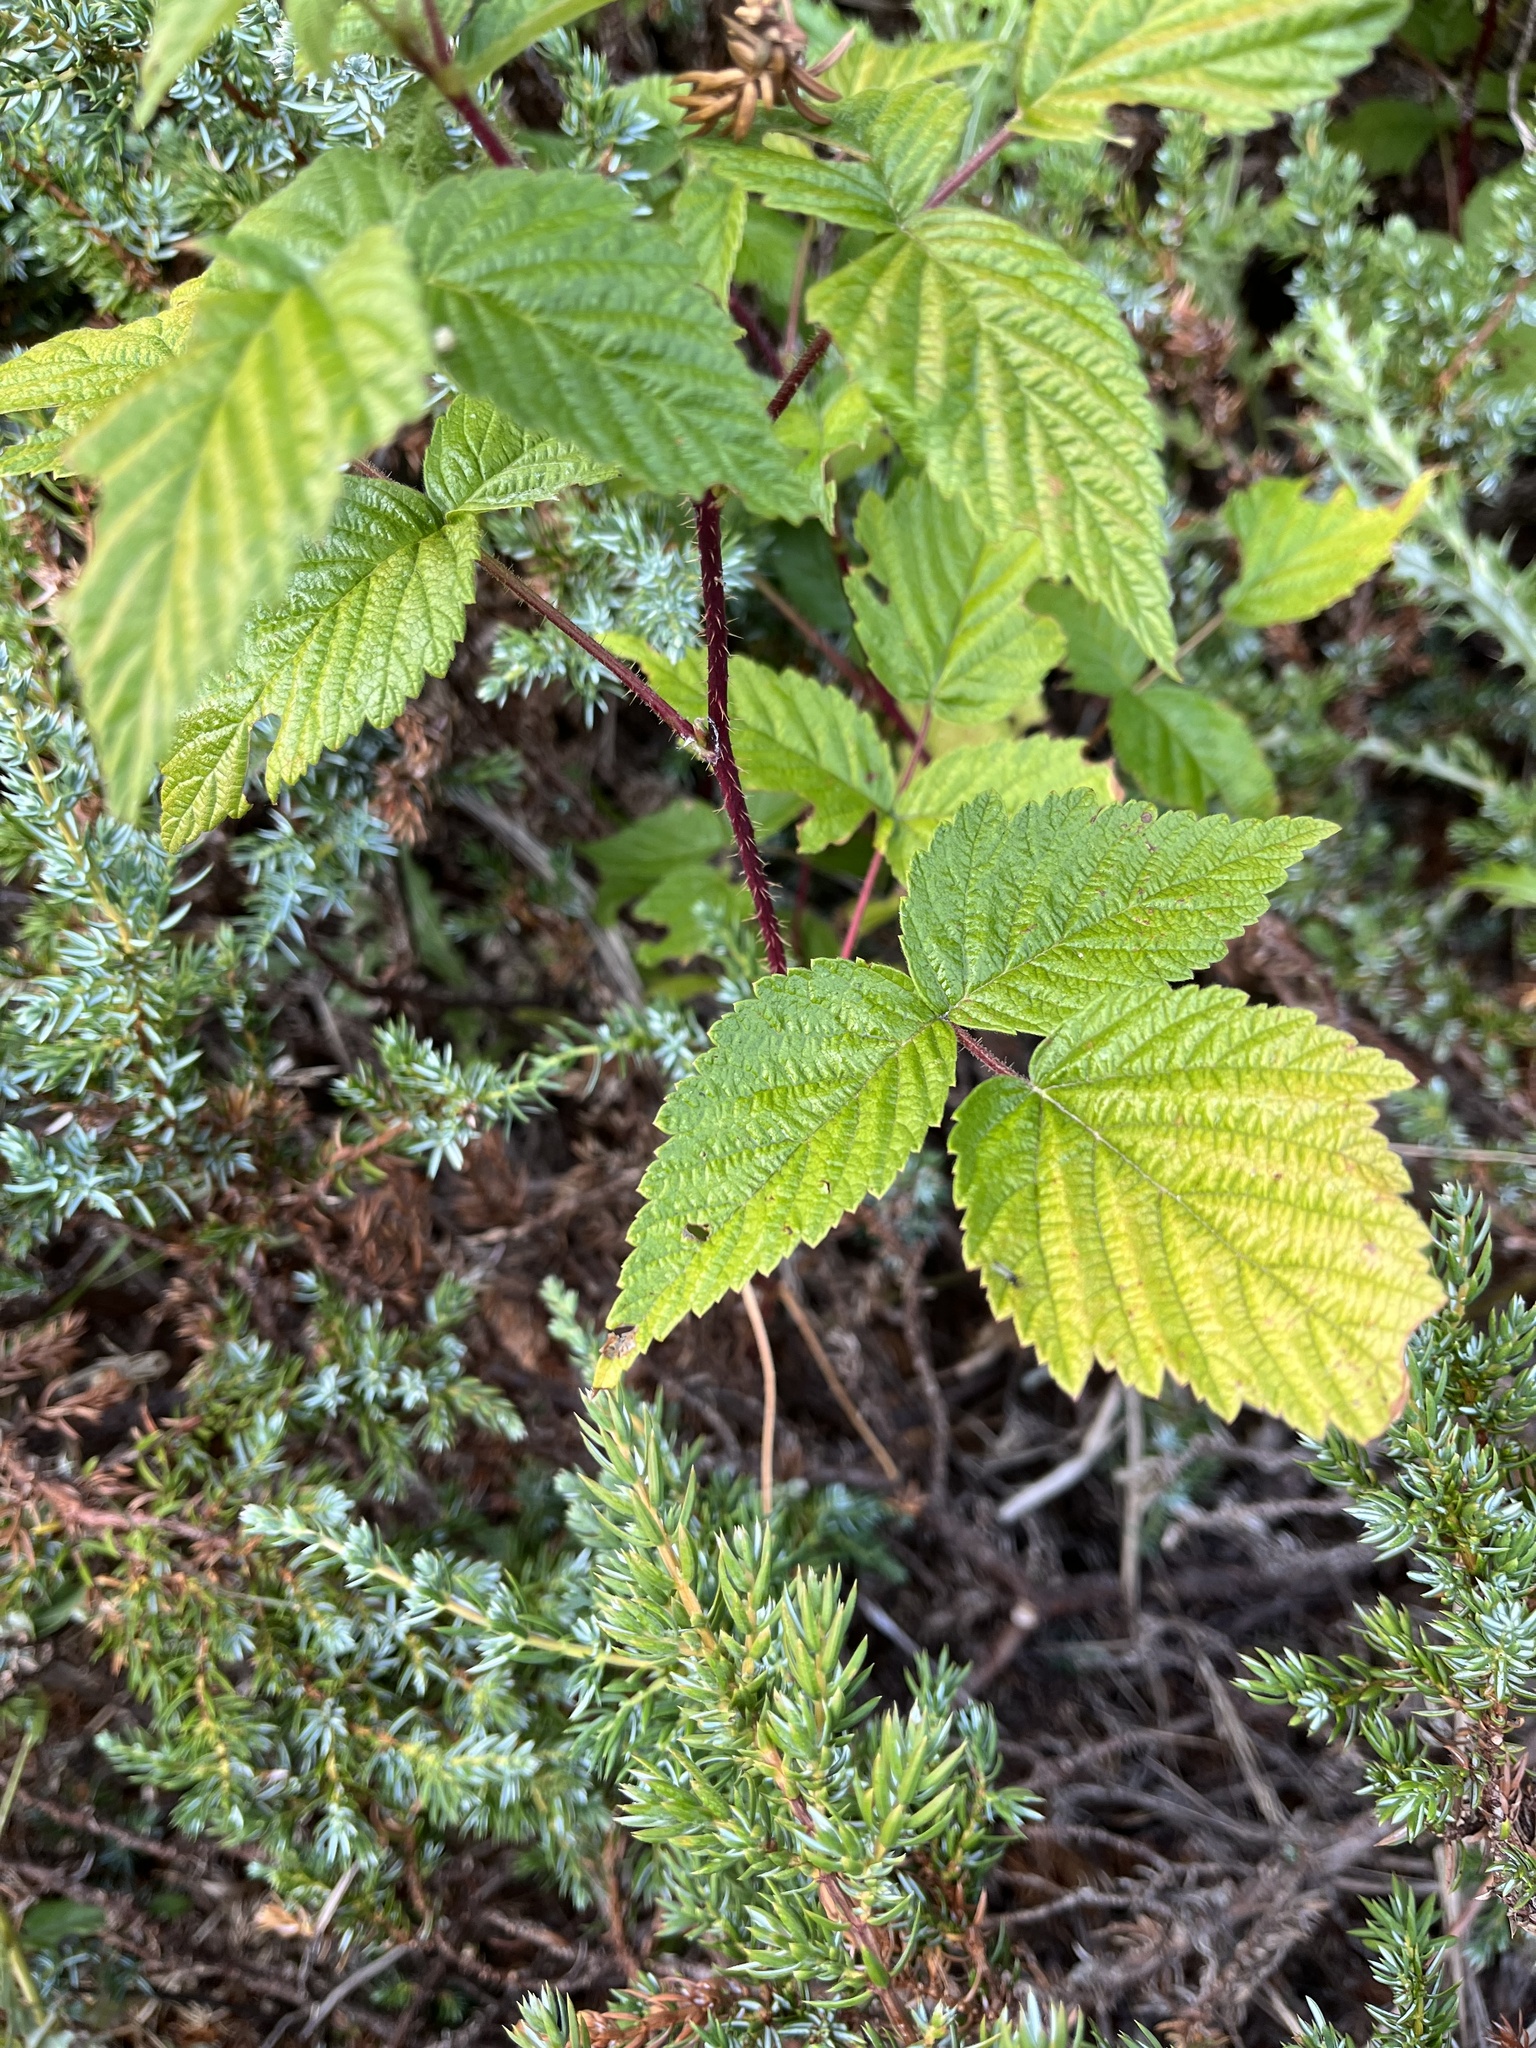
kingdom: Plantae
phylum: Tracheophyta
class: Magnoliopsida
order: Rosales
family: Rosaceae
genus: Rubus
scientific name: Rubus idaeus
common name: Raspberry
